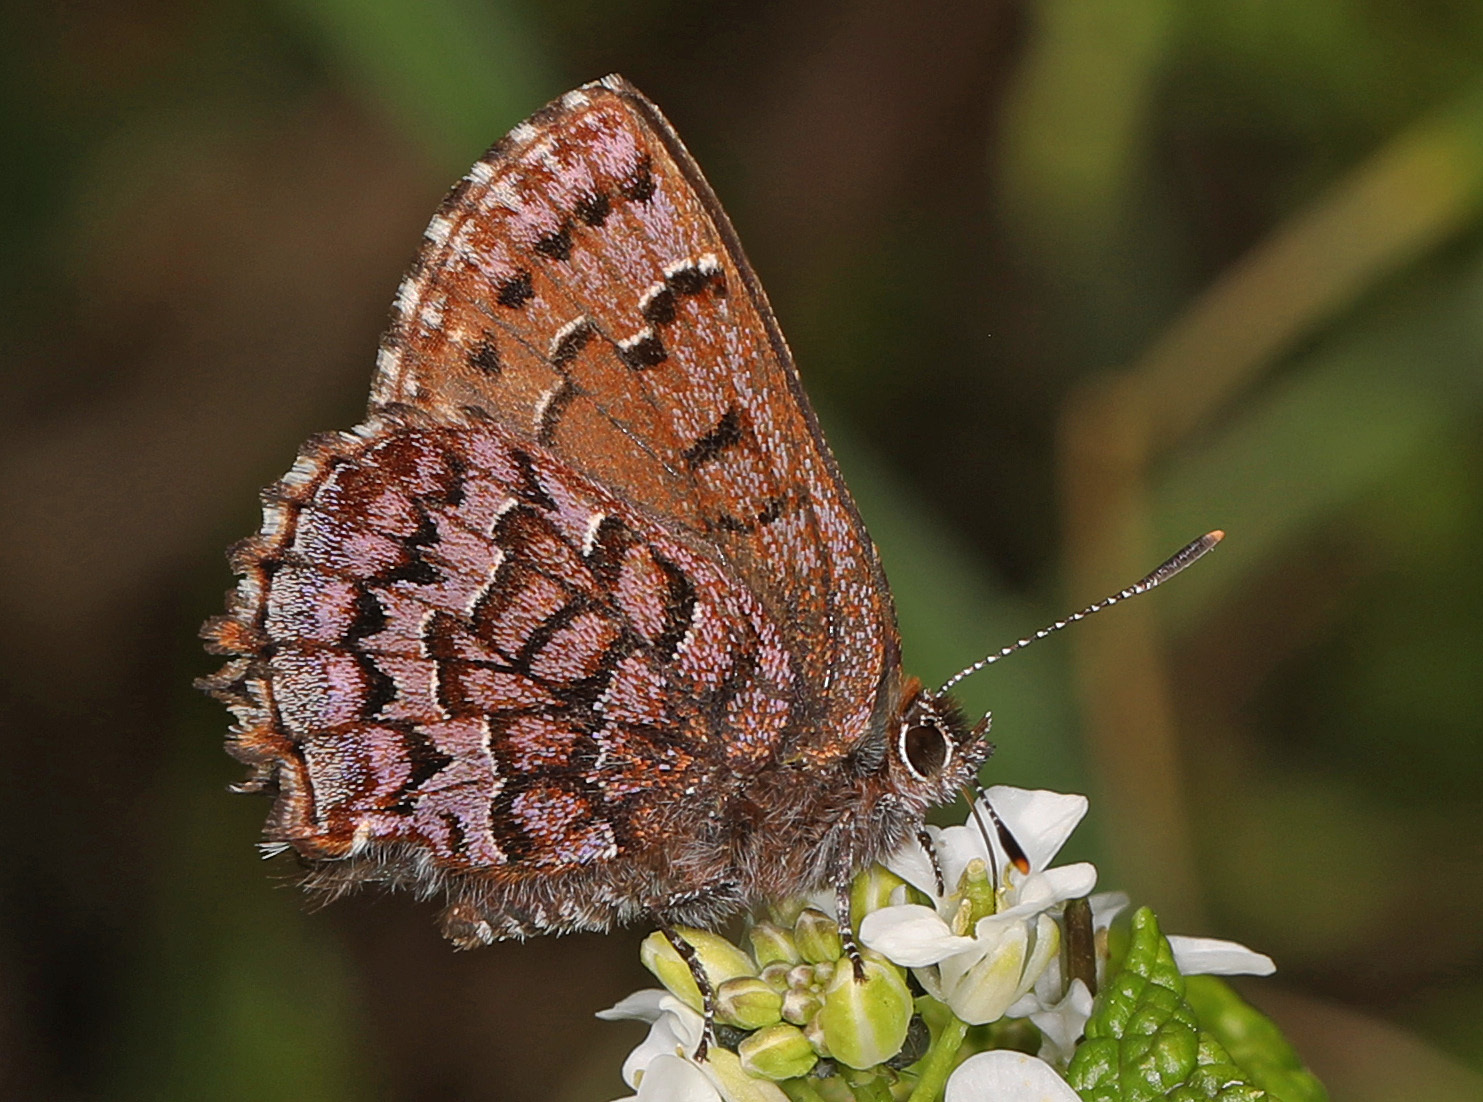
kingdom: Animalia
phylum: Arthropoda
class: Insecta
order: Lepidoptera
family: Lycaenidae
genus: Incisalia
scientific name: Incisalia niphon
